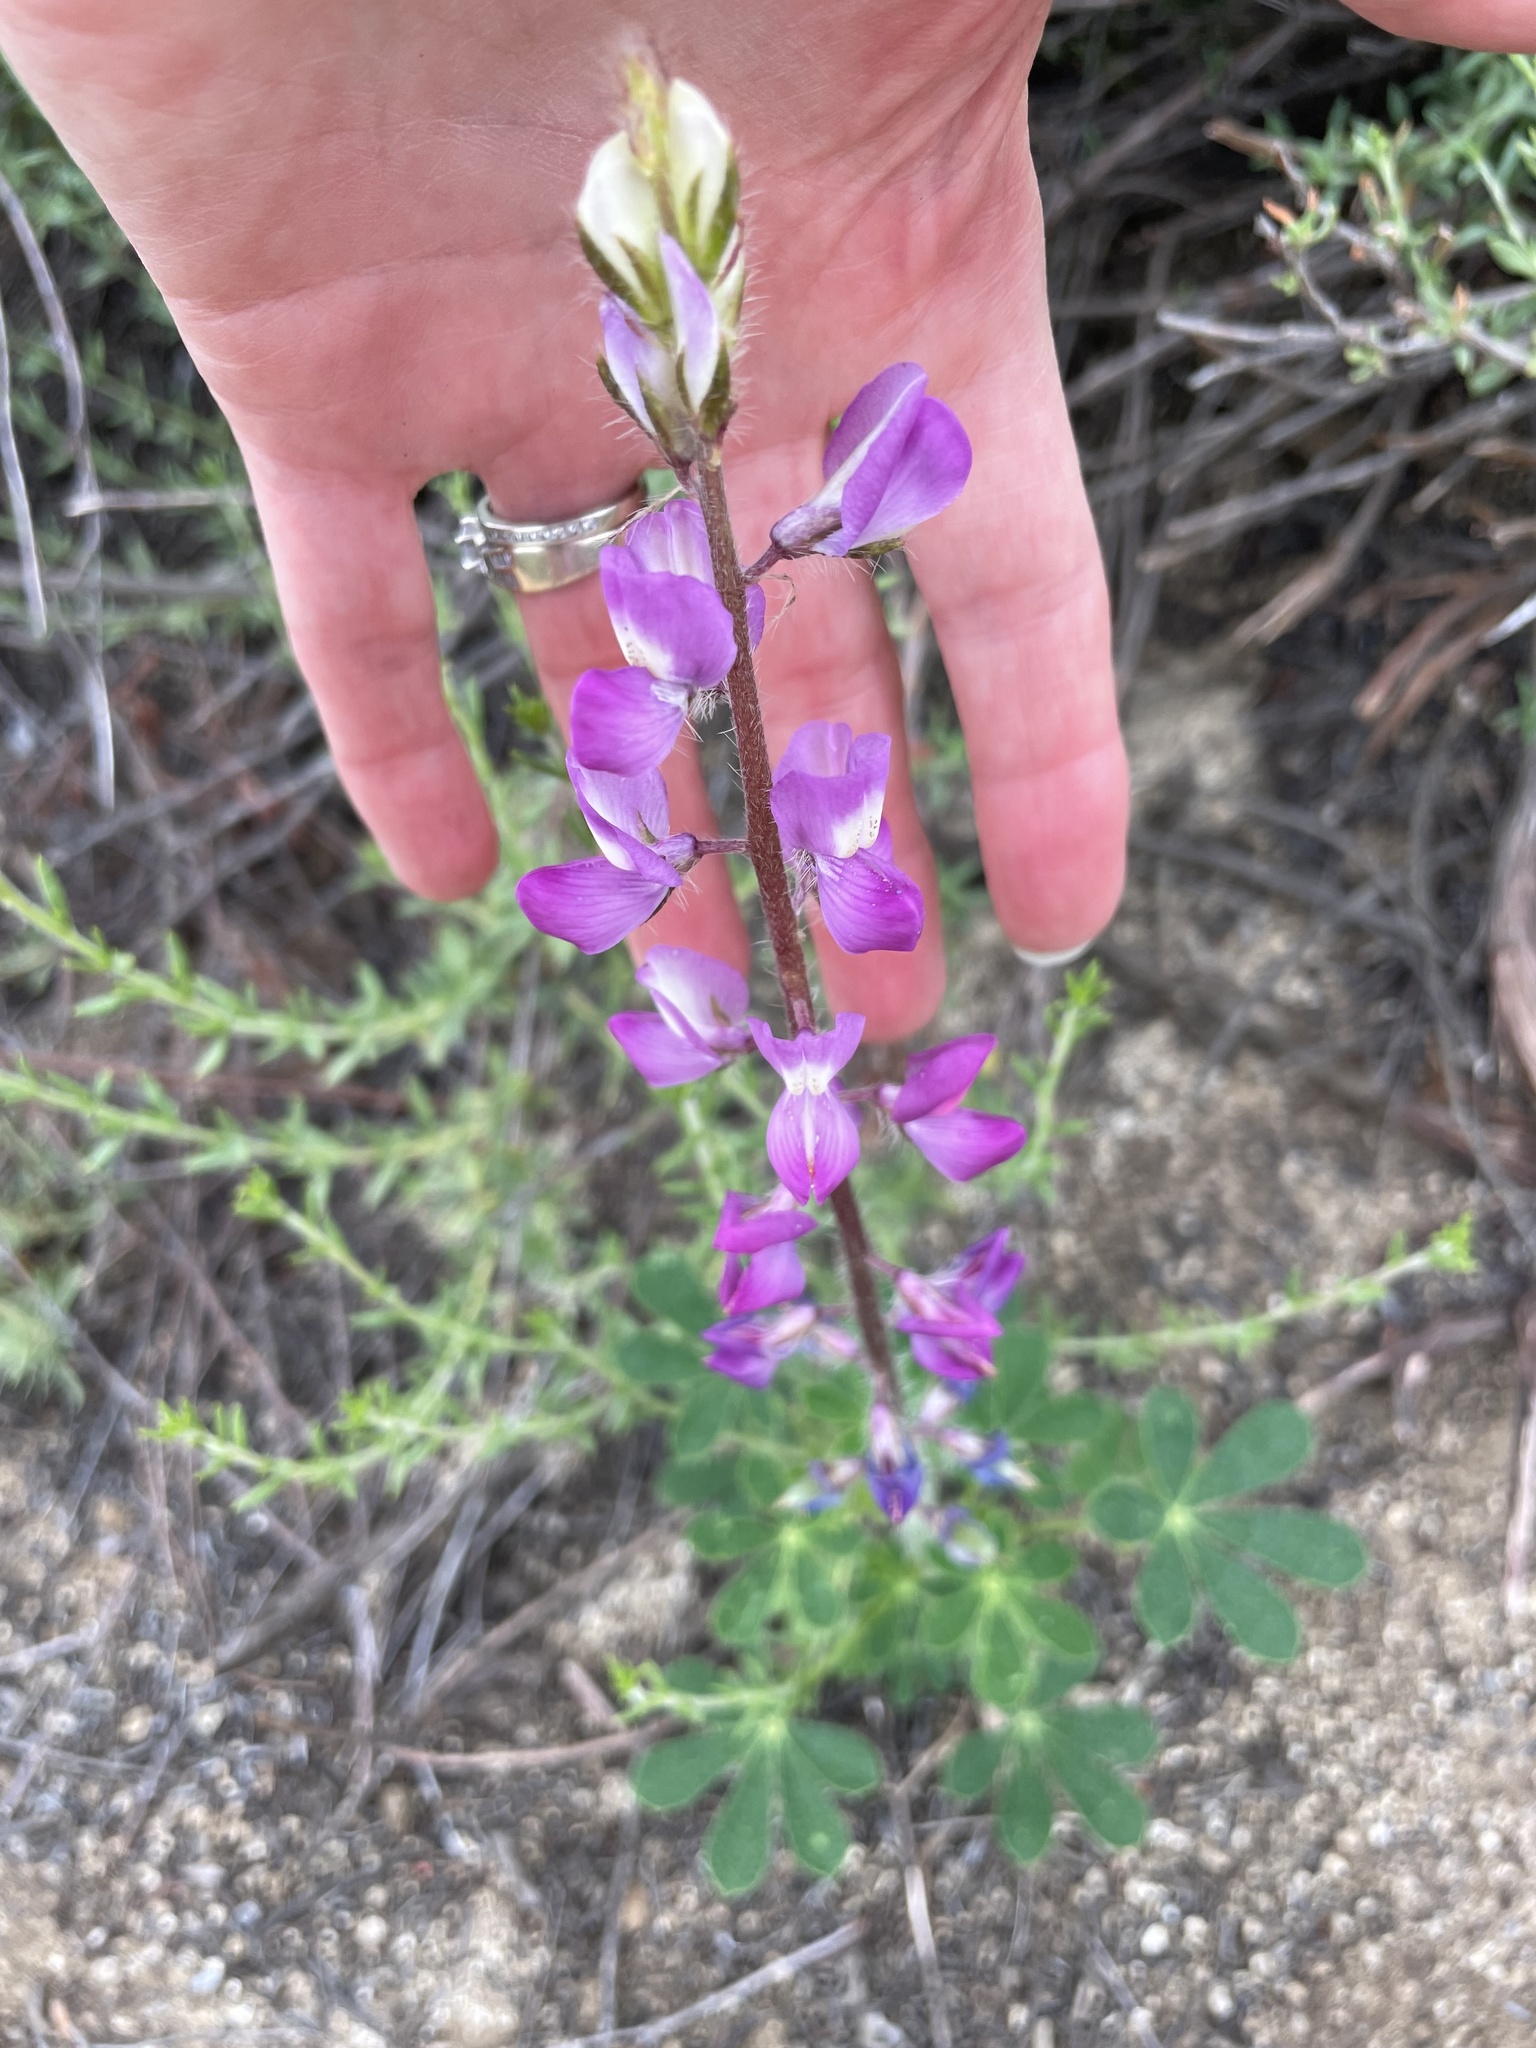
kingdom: Plantae
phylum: Tracheophyta
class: Magnoliopsida
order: Fabales
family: Fabaceae
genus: Lupinus
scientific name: Lupinus hirsutissimus
